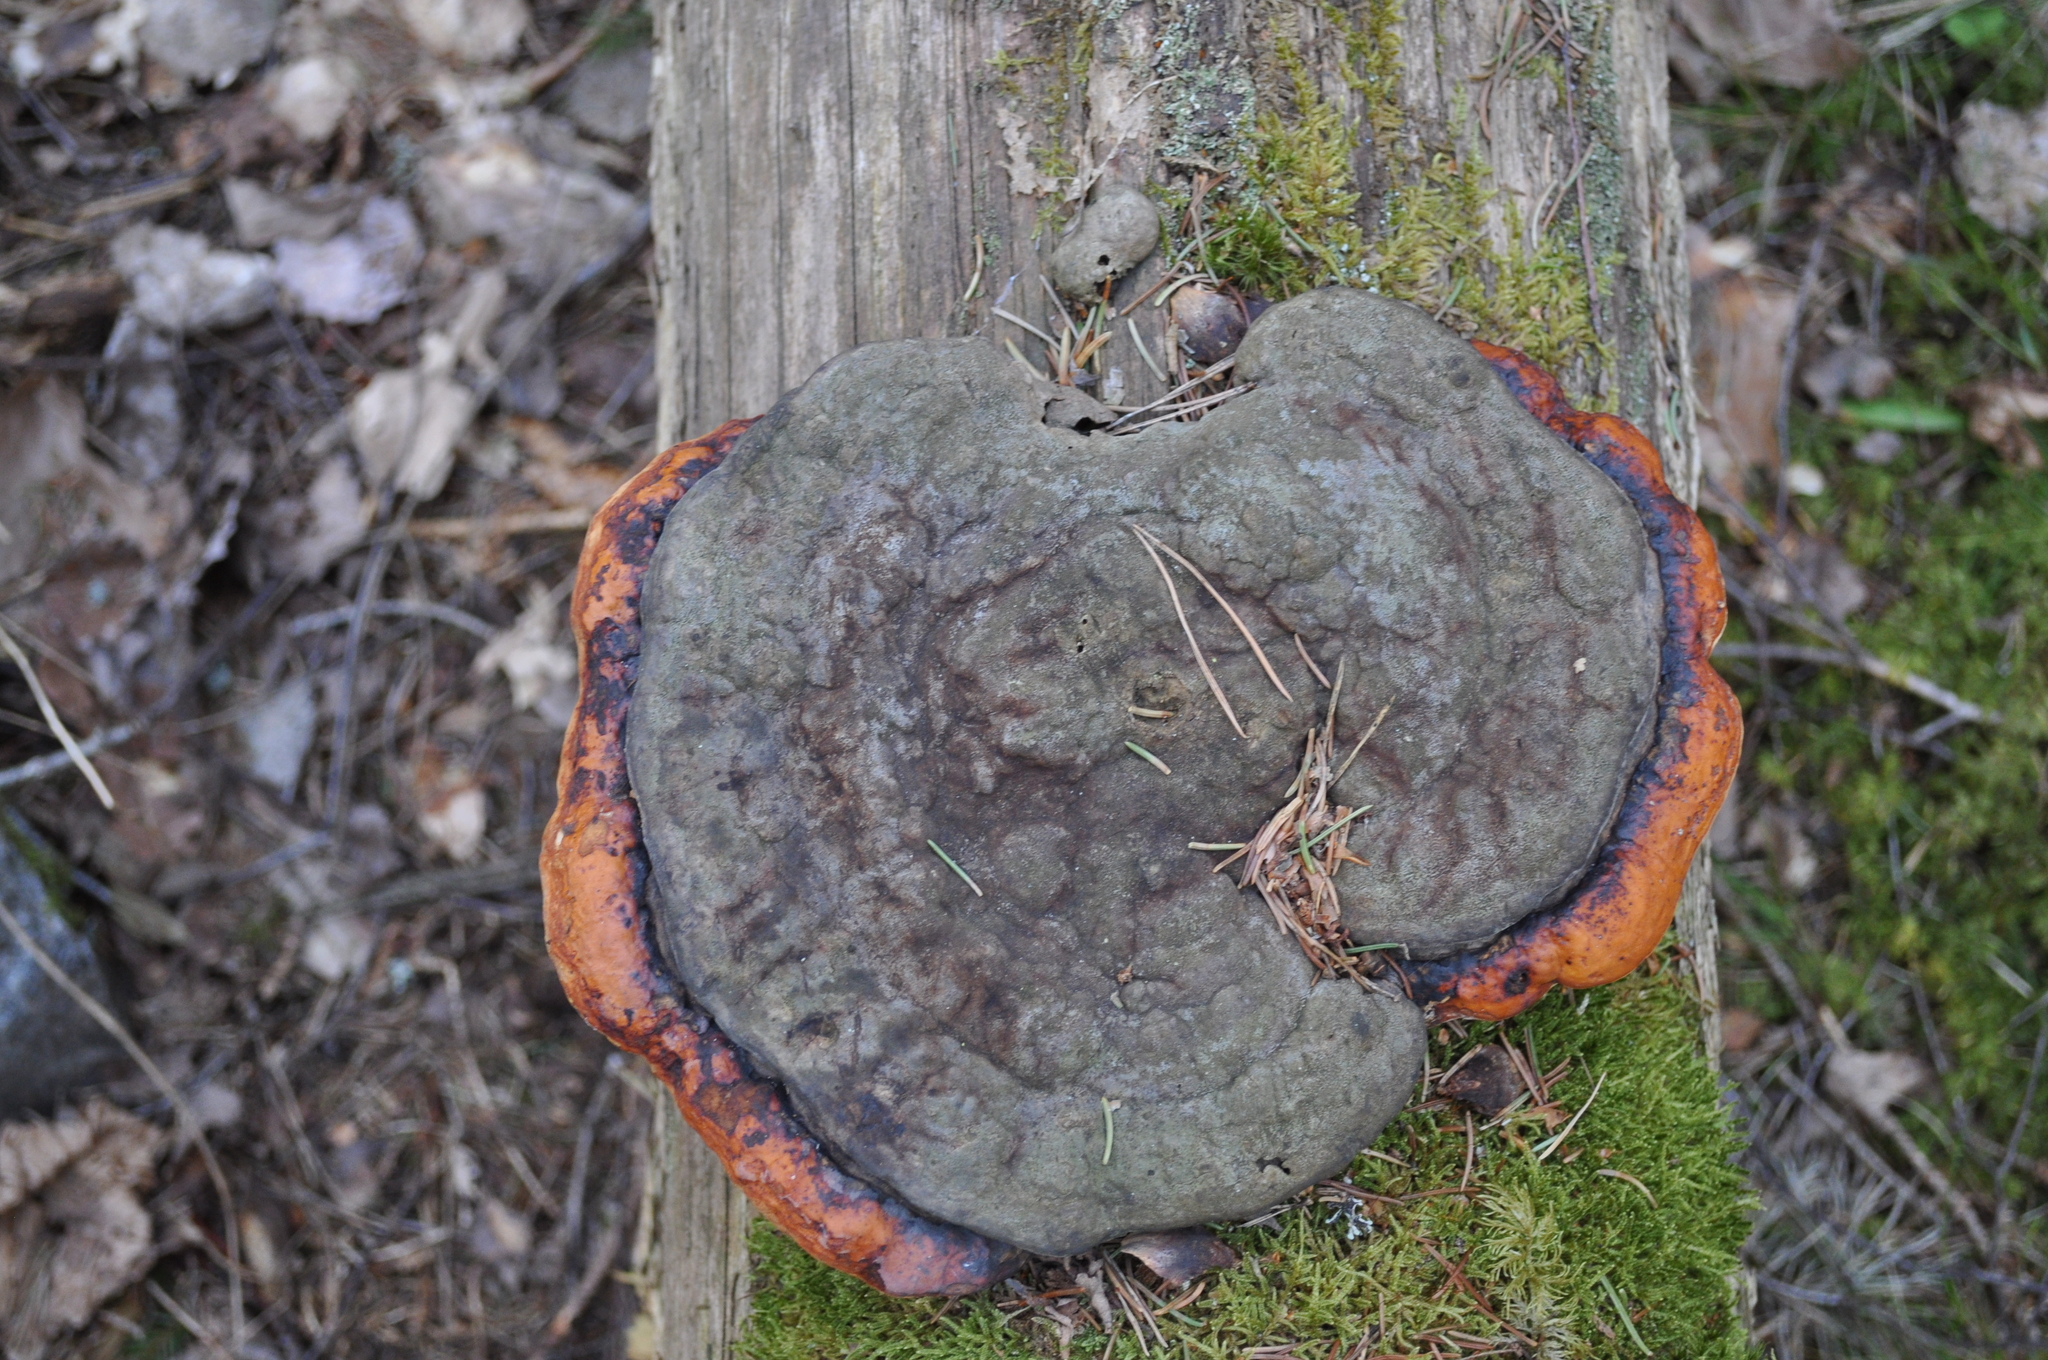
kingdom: Fungi
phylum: Basidiomycota
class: Agaricomycetes
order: Polyporales
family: Fomitopsidaceae
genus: Fomitopsis
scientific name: Fomitopsis pinicola
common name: Red-belted bracket
